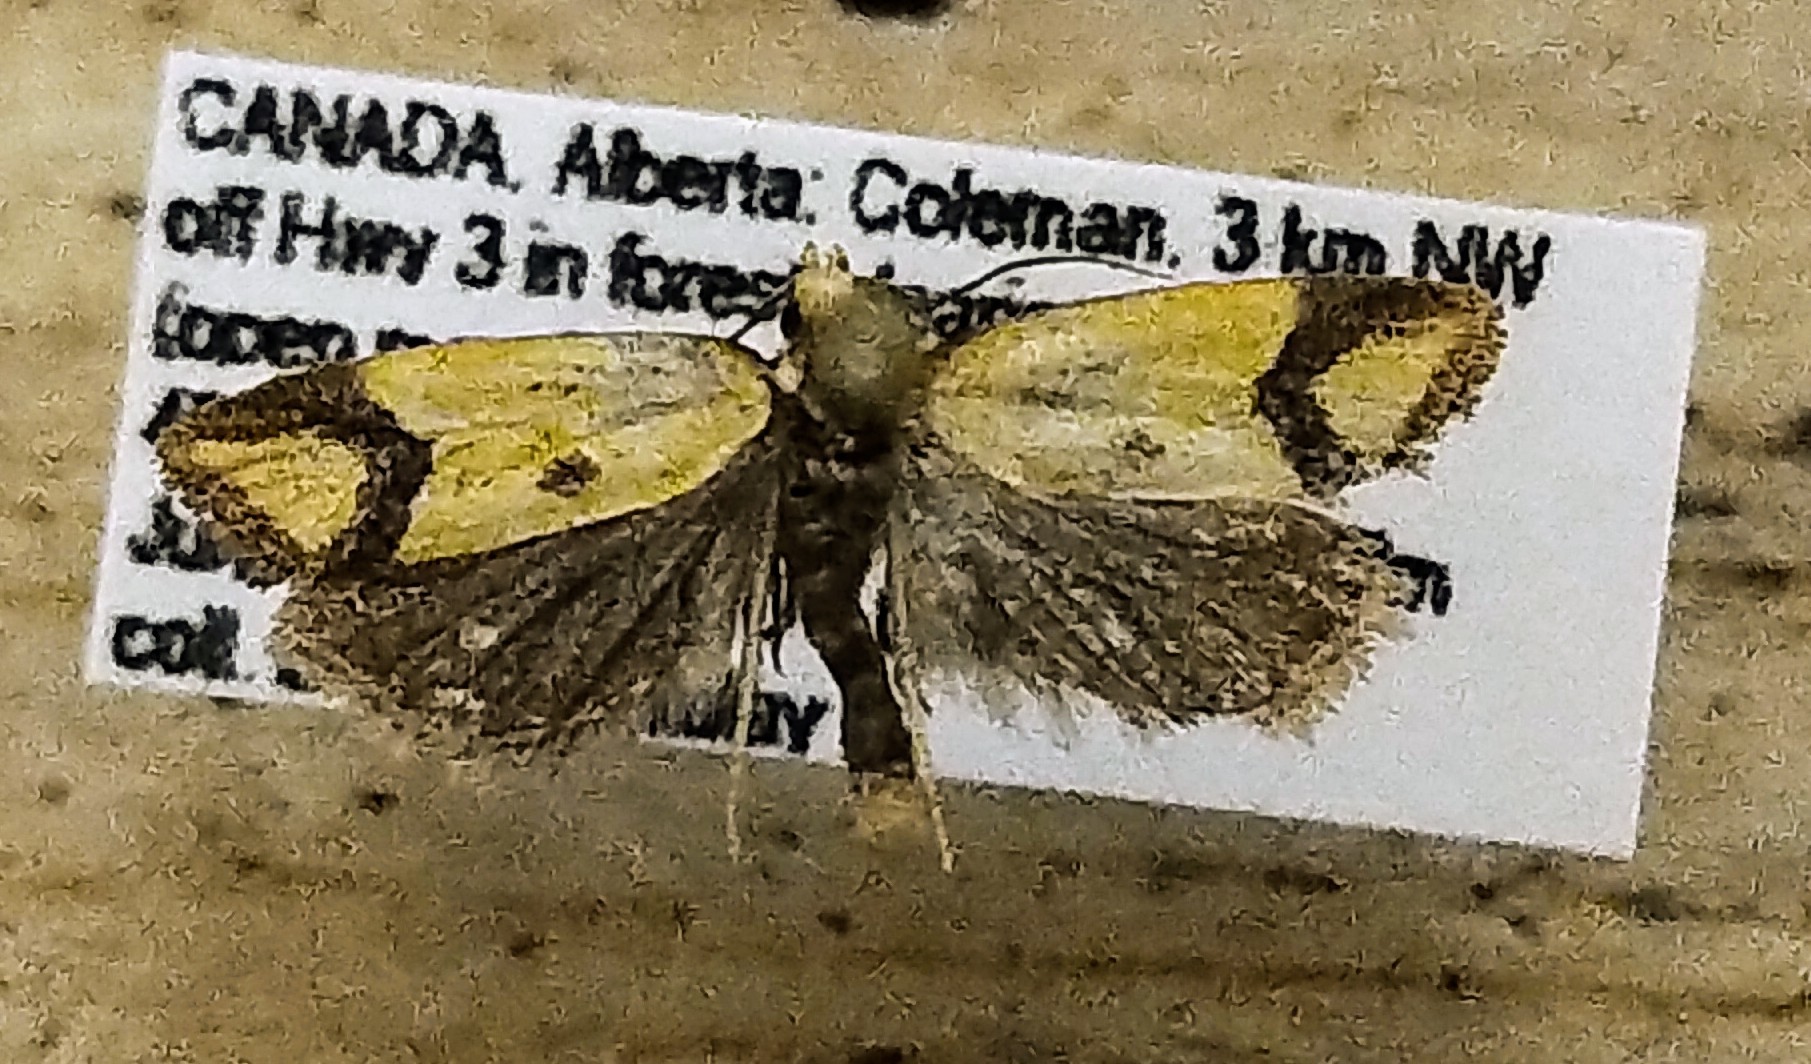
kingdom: Animalia
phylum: Arthropoda
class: Insecta
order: Lepidoptera
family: Tortricidae
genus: Agapeta
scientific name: Agapeta zoegana
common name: Sulfur knapweed root moth
